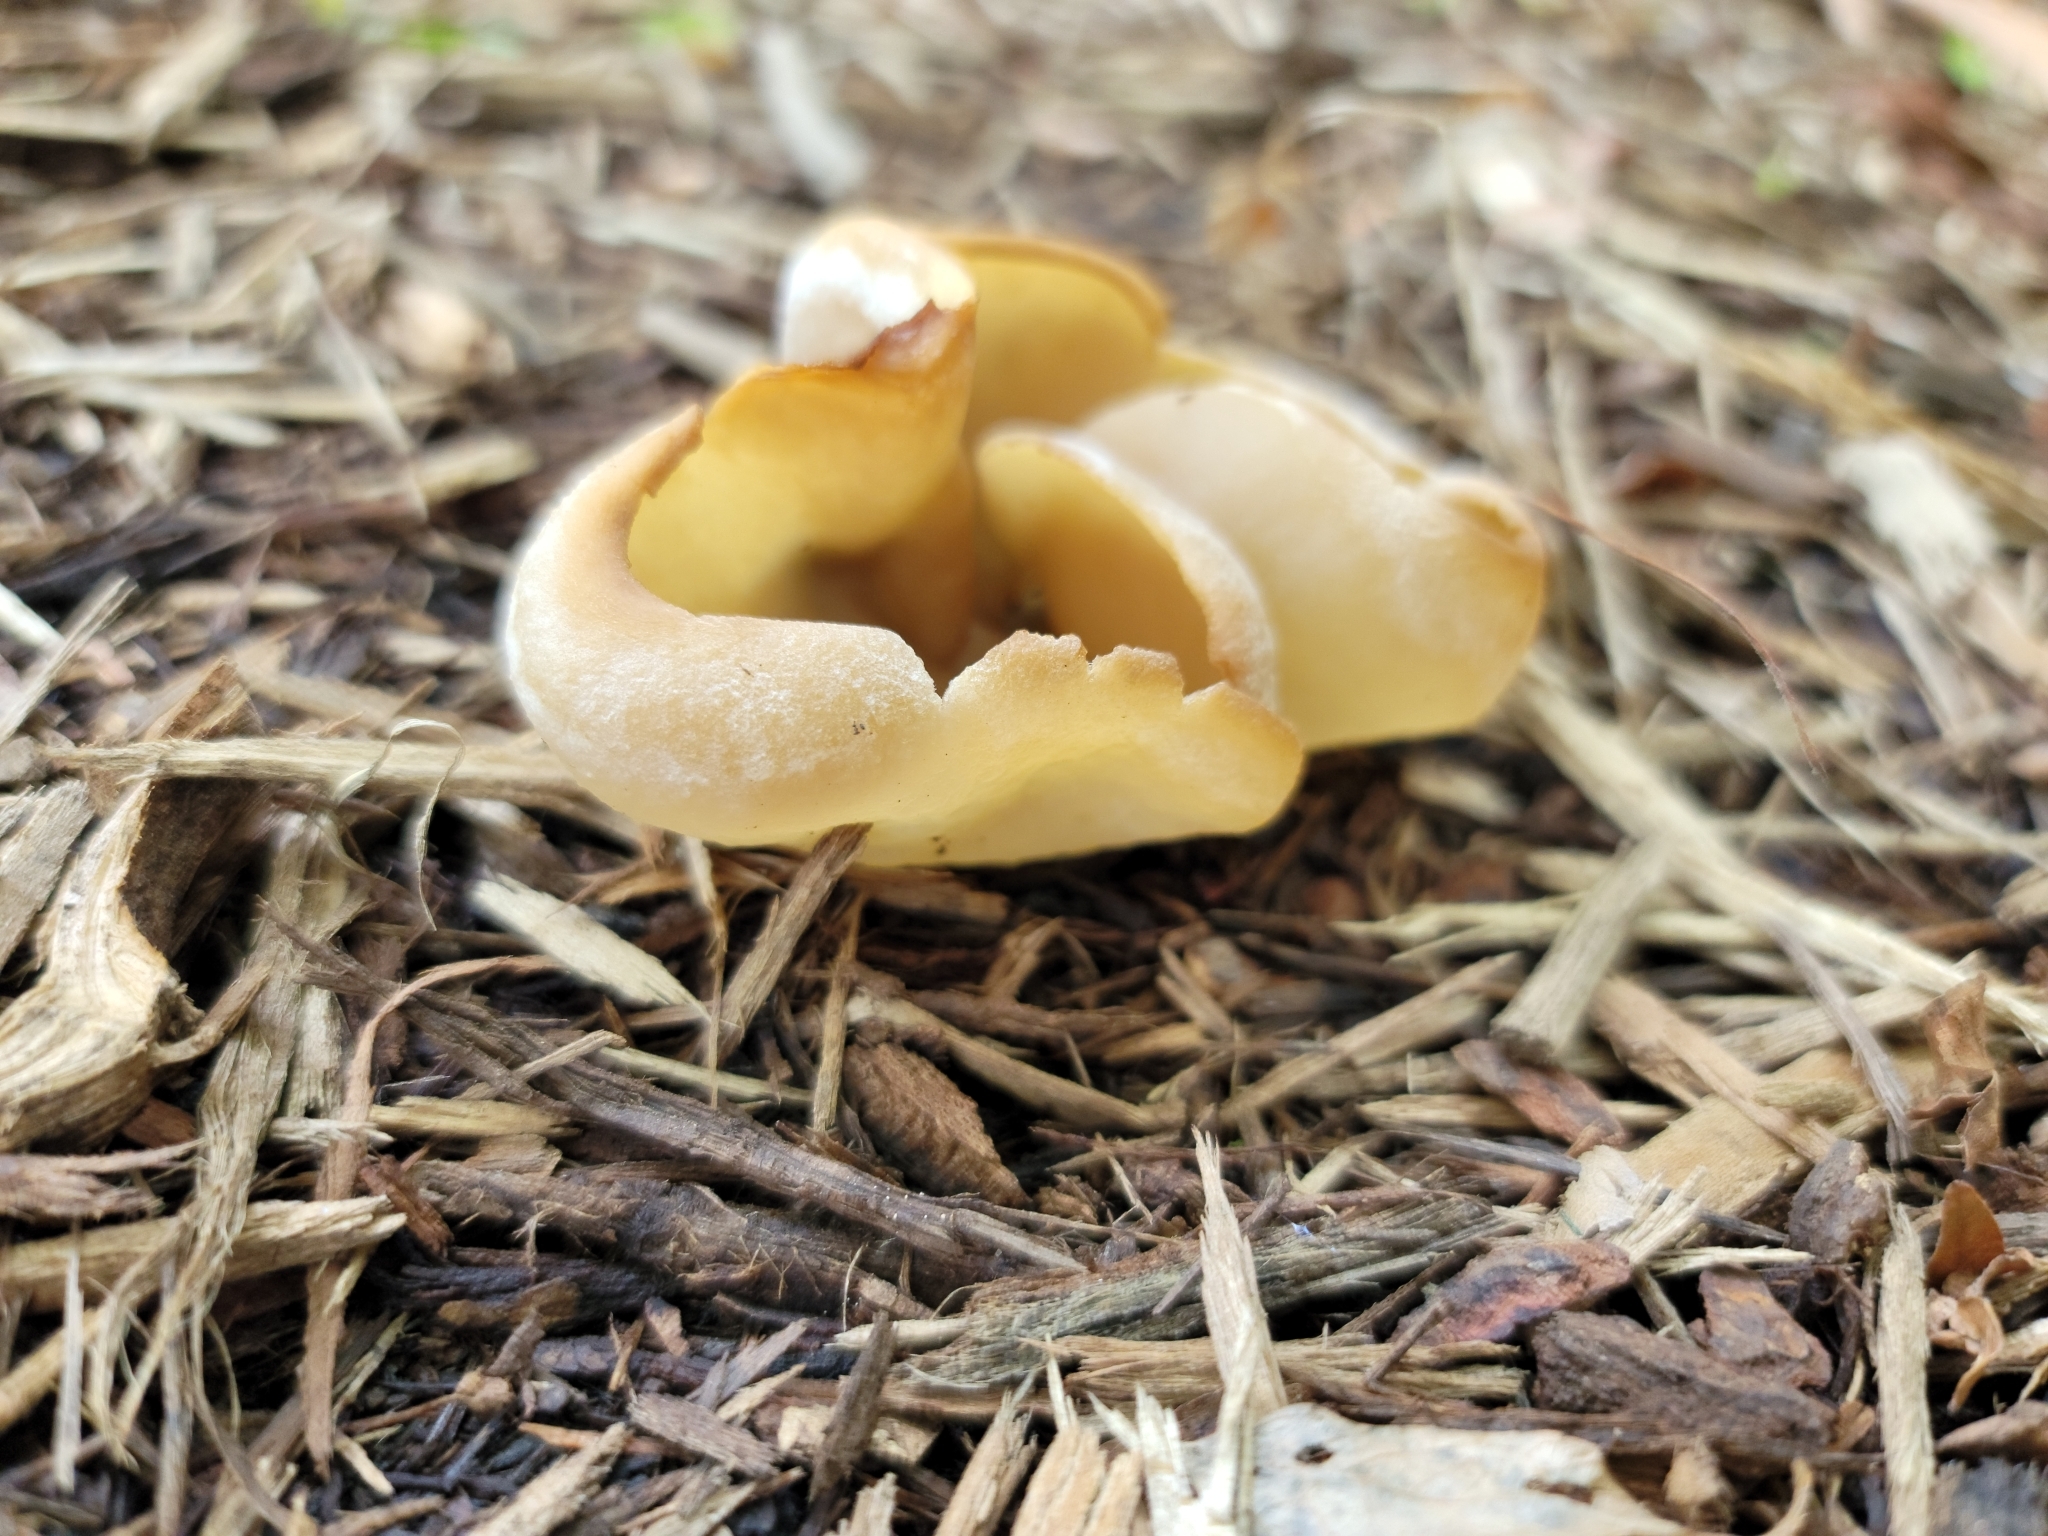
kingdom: Fungi
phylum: Ascomycota
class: Pezizomycetes
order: Pezizales
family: Pezizaceae
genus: Peziza
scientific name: Peziza vesiculosa
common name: Blistered cup
